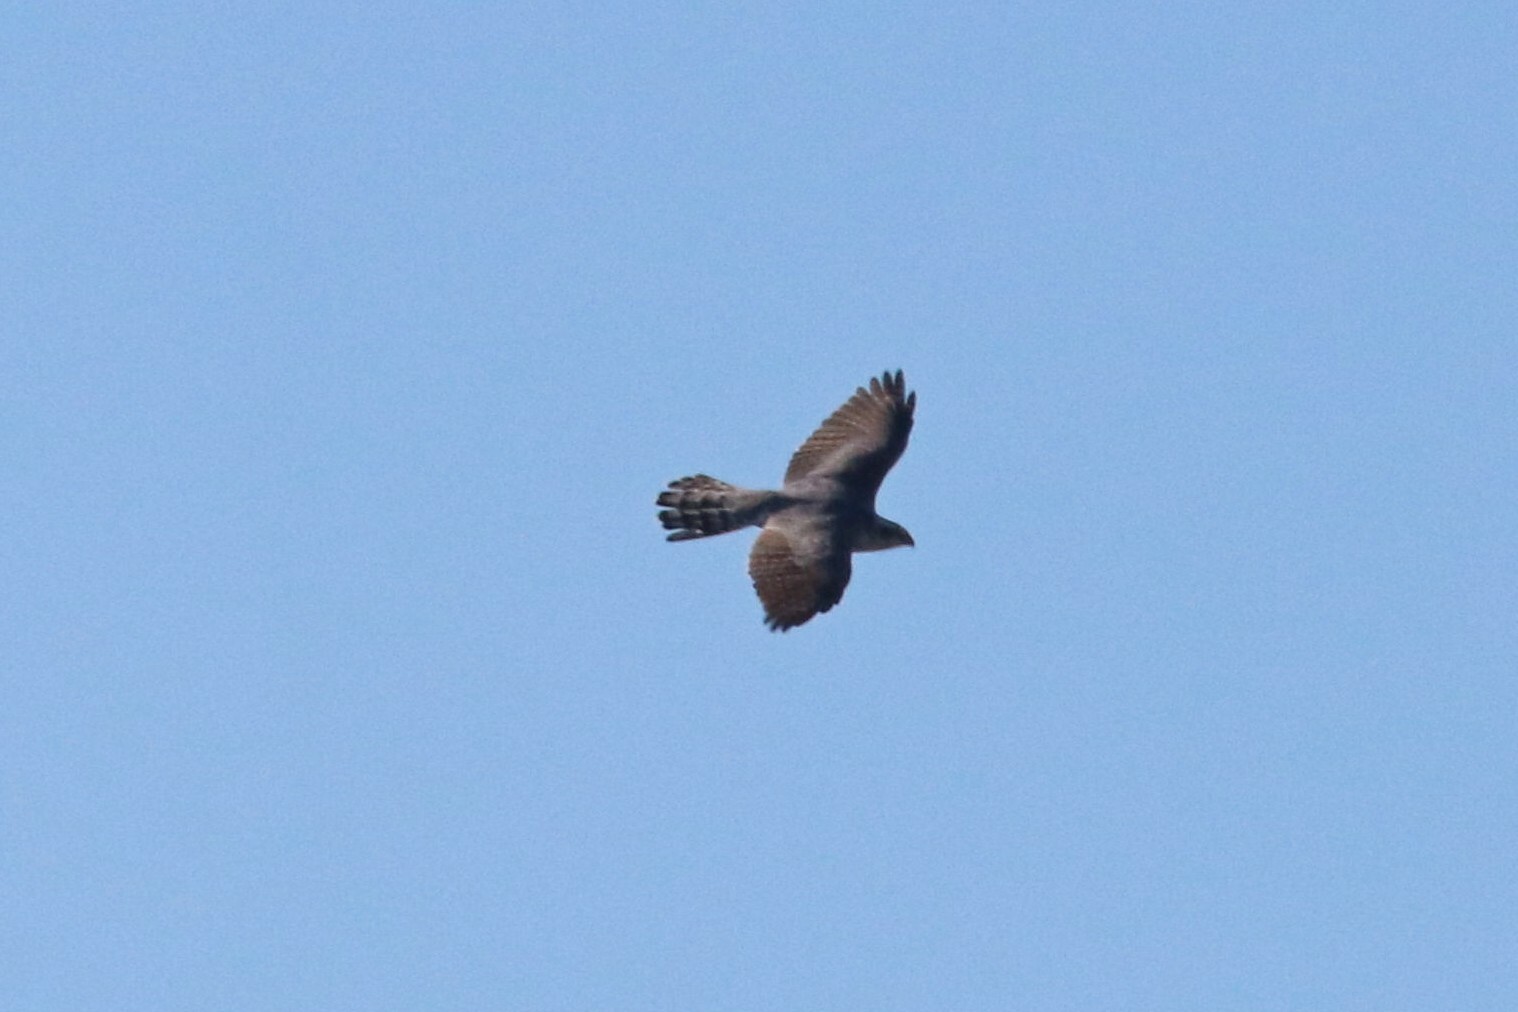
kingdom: Animalia
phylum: Chordata
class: Aves
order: Accipitriformes
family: Accipitridae
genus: Accipiter
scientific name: Accipiter gentilis
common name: Northern goshawk
